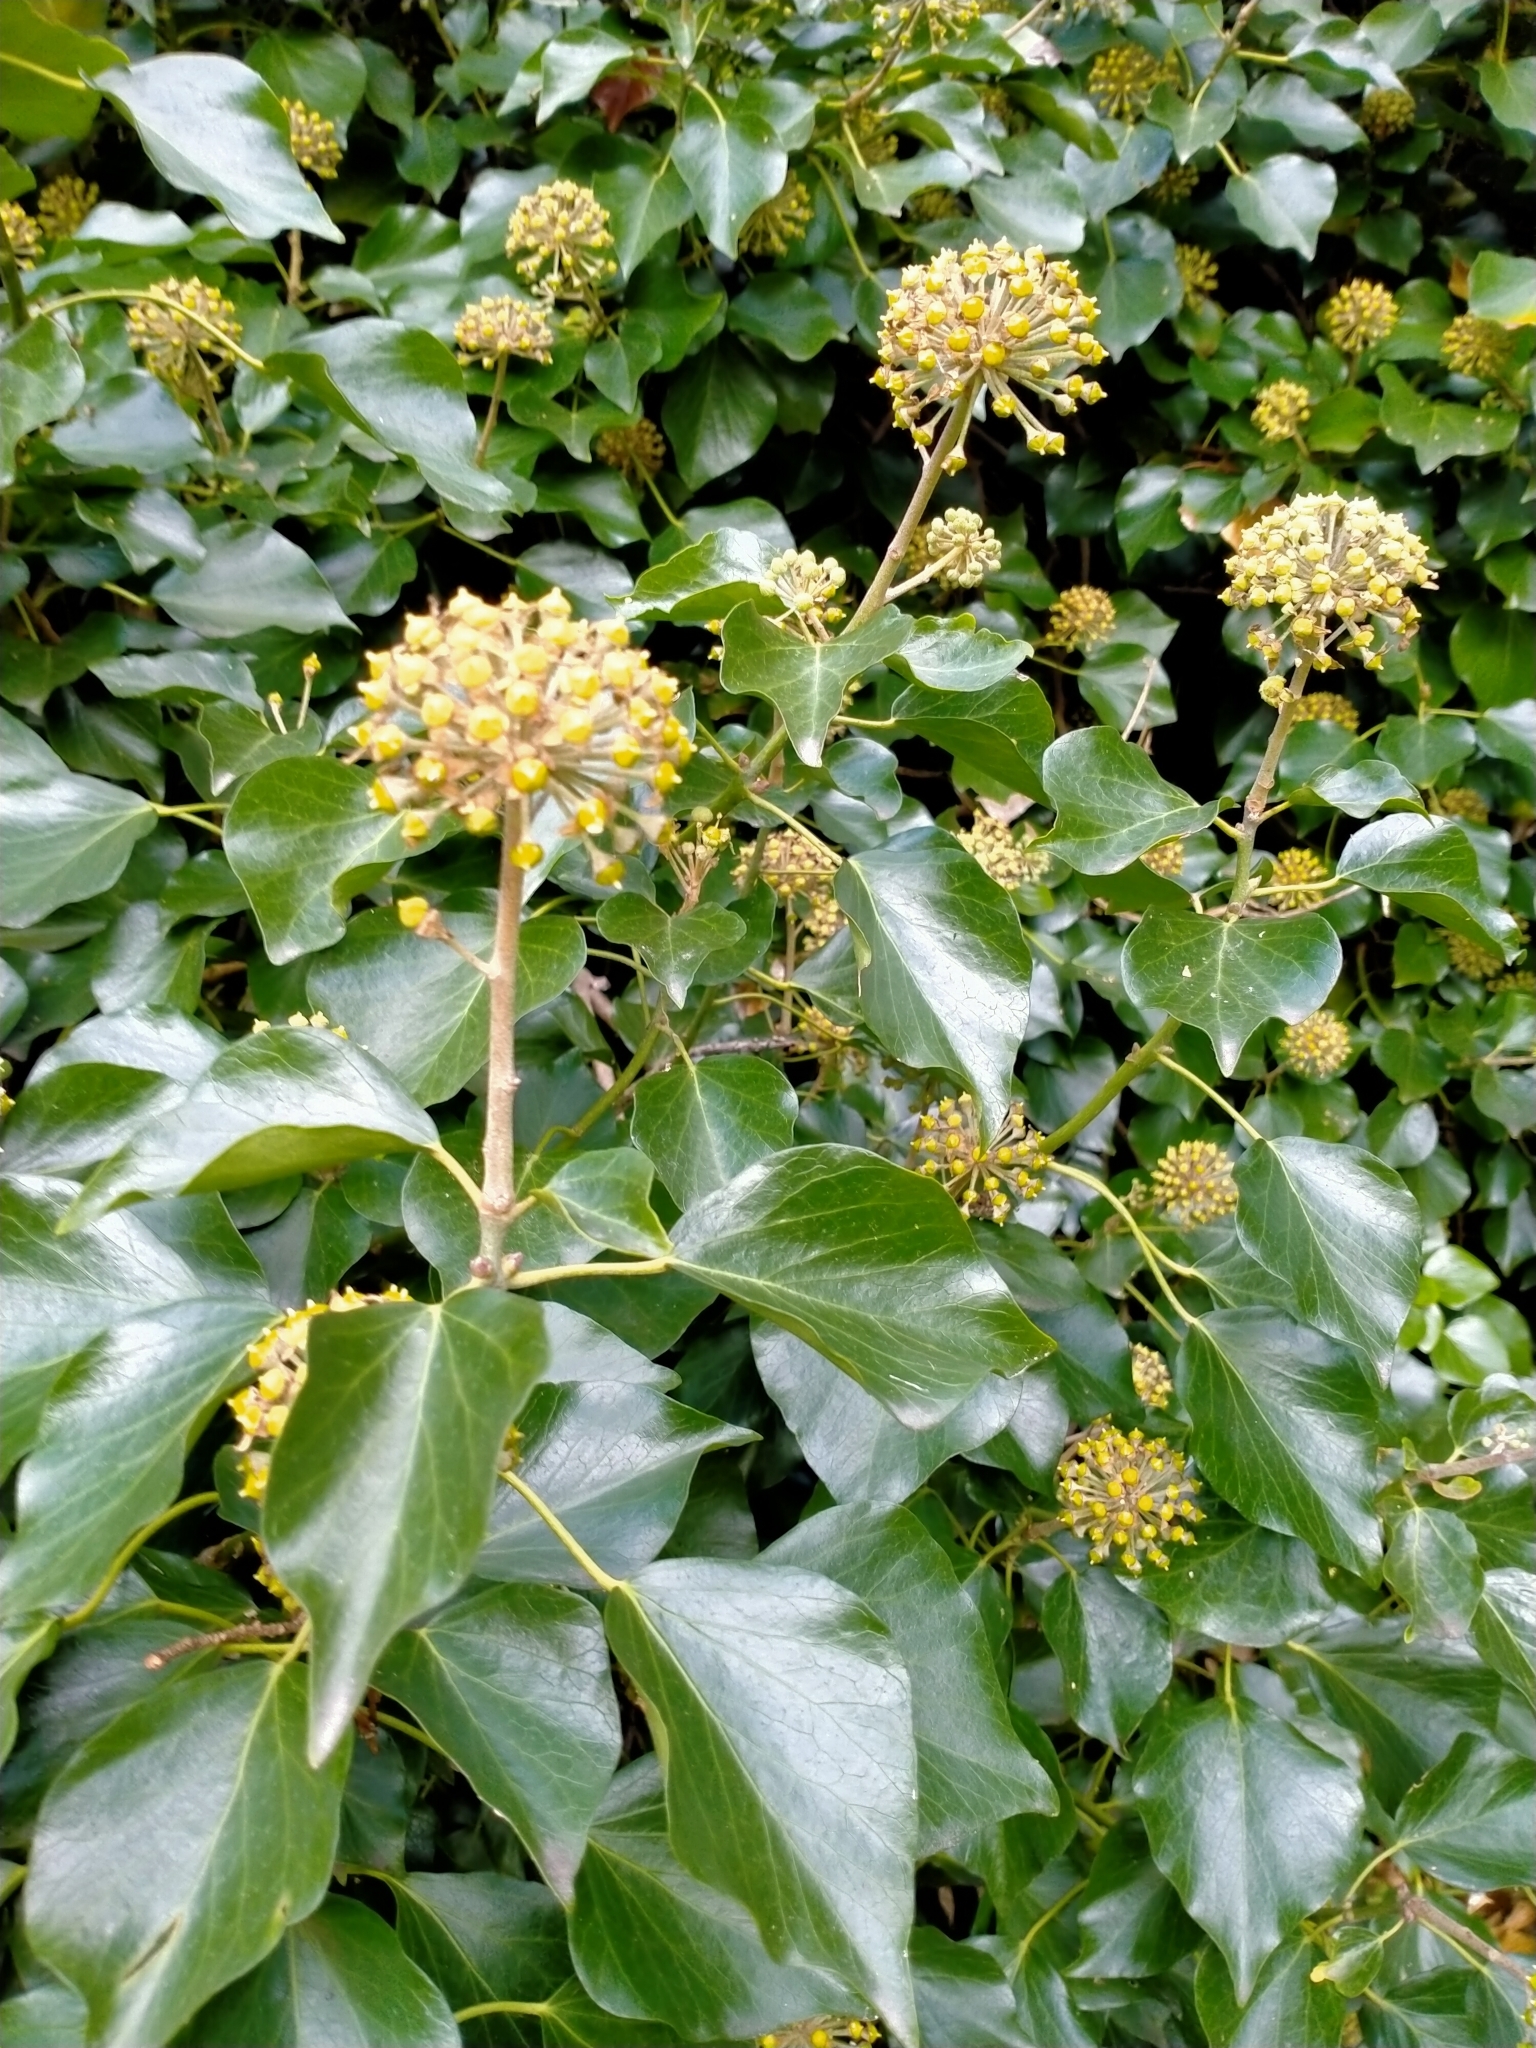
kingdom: Plantae
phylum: Tracheophyta
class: Magnoliopsida
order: Apiales
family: Araliaceae
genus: Hedera
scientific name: Hedera helix
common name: Ivy
